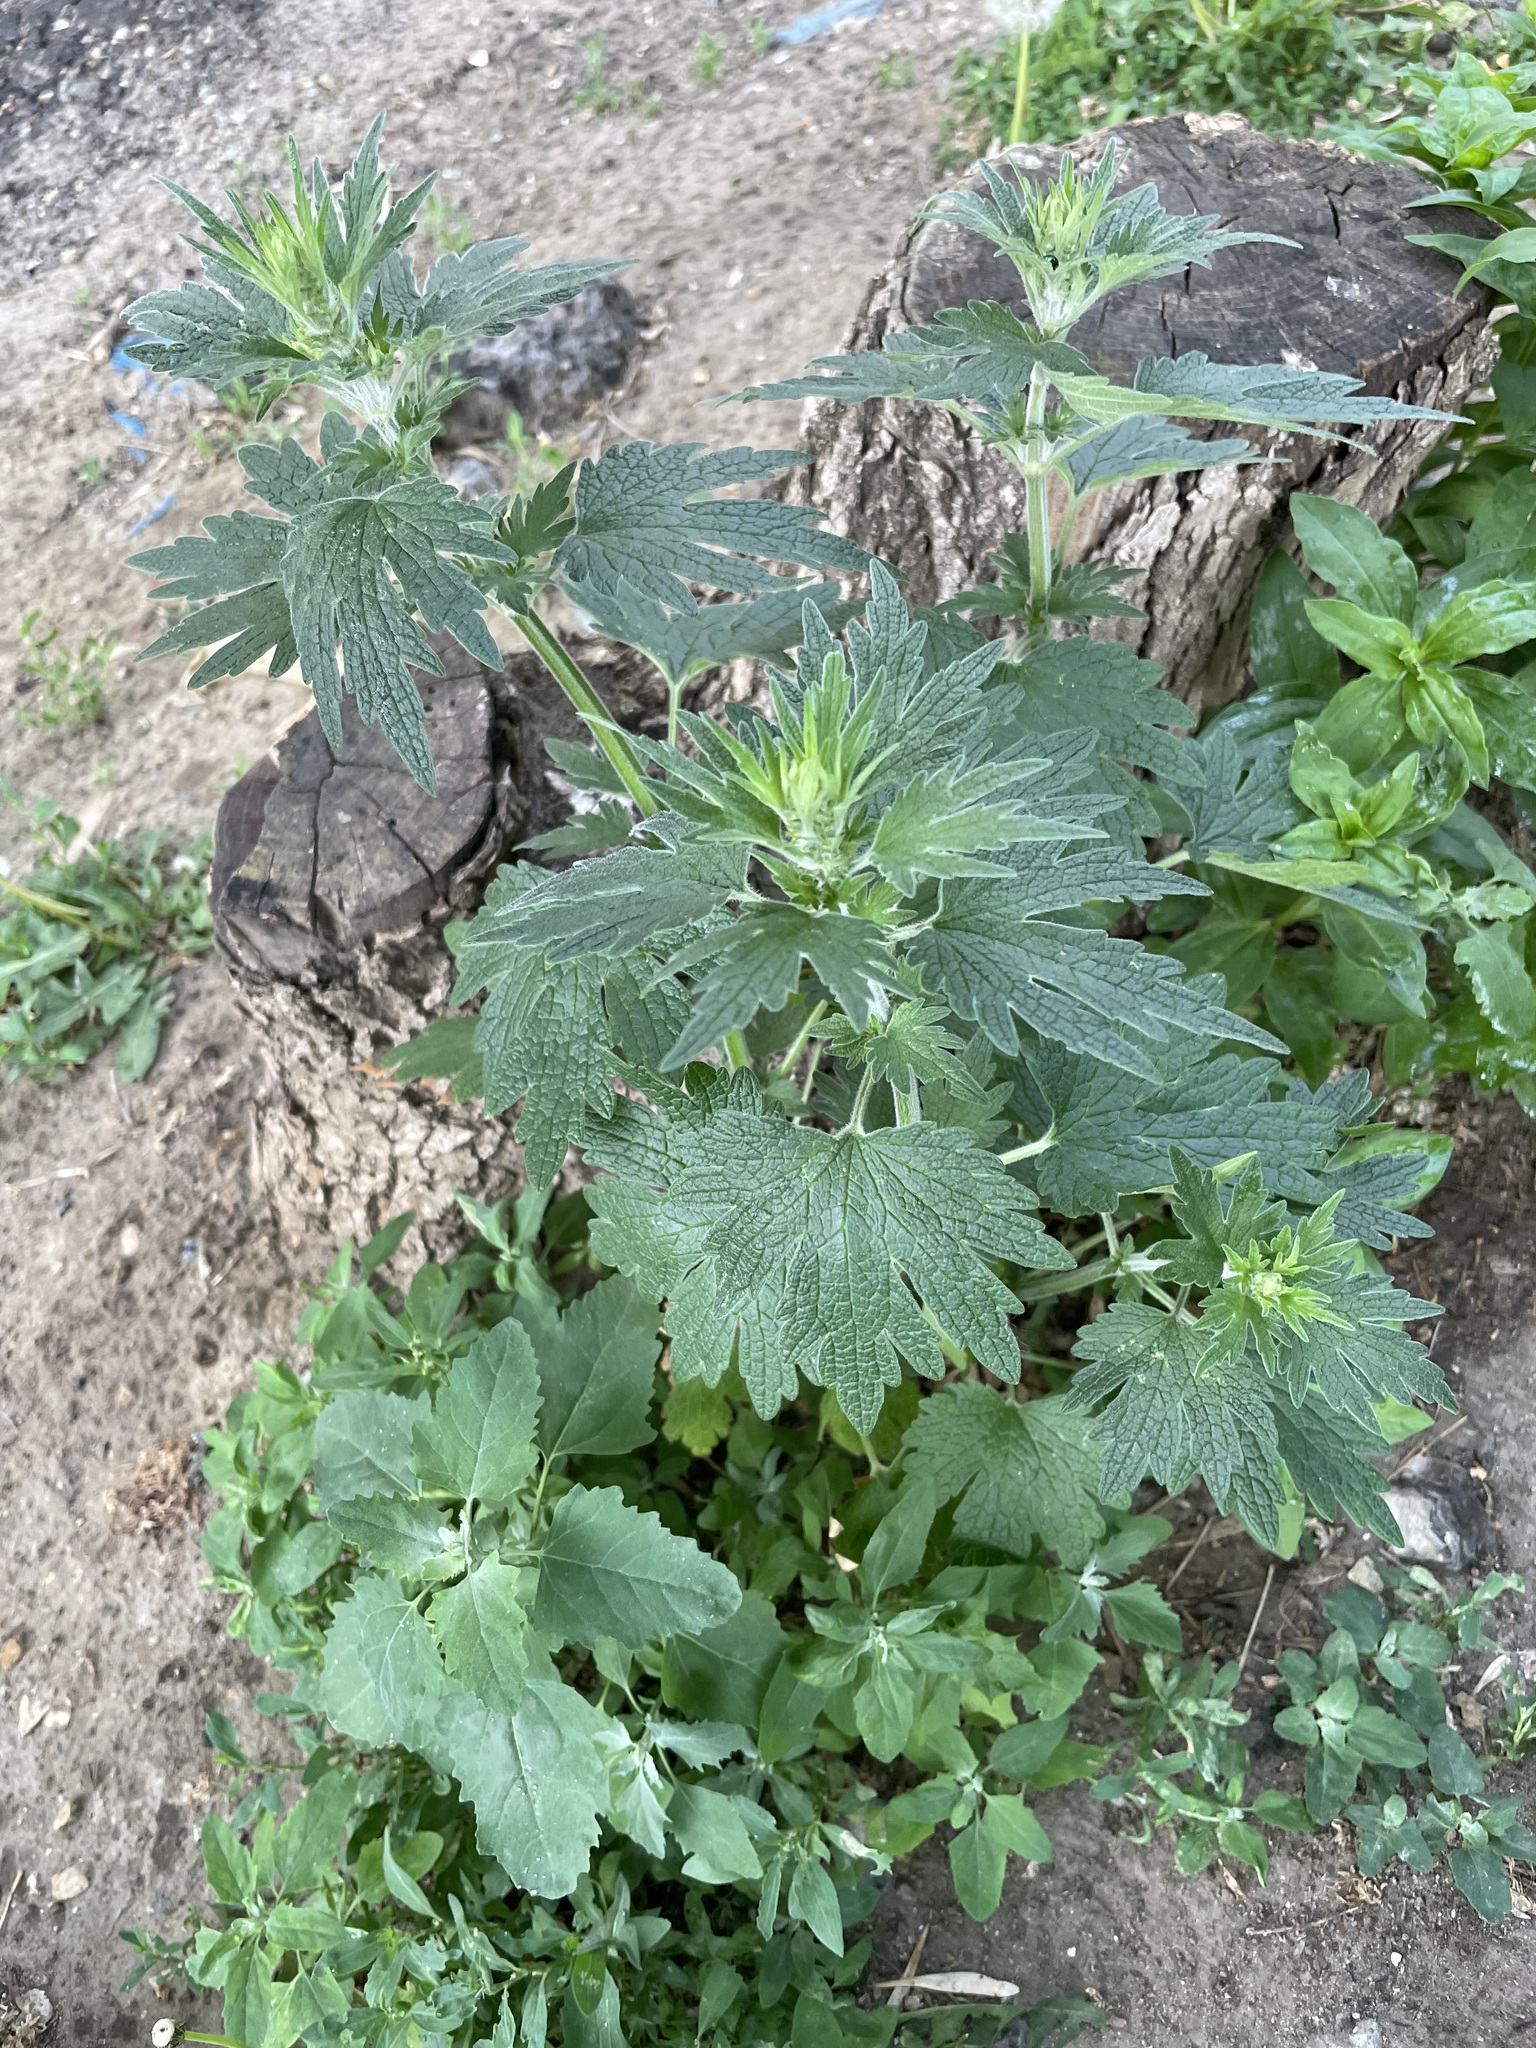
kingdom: Plantae
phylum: Tracheophyta
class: Magnoliopsida
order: Lamiales
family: Lamiaceae
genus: Leonurus
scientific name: Leonurus quinquelobatus
